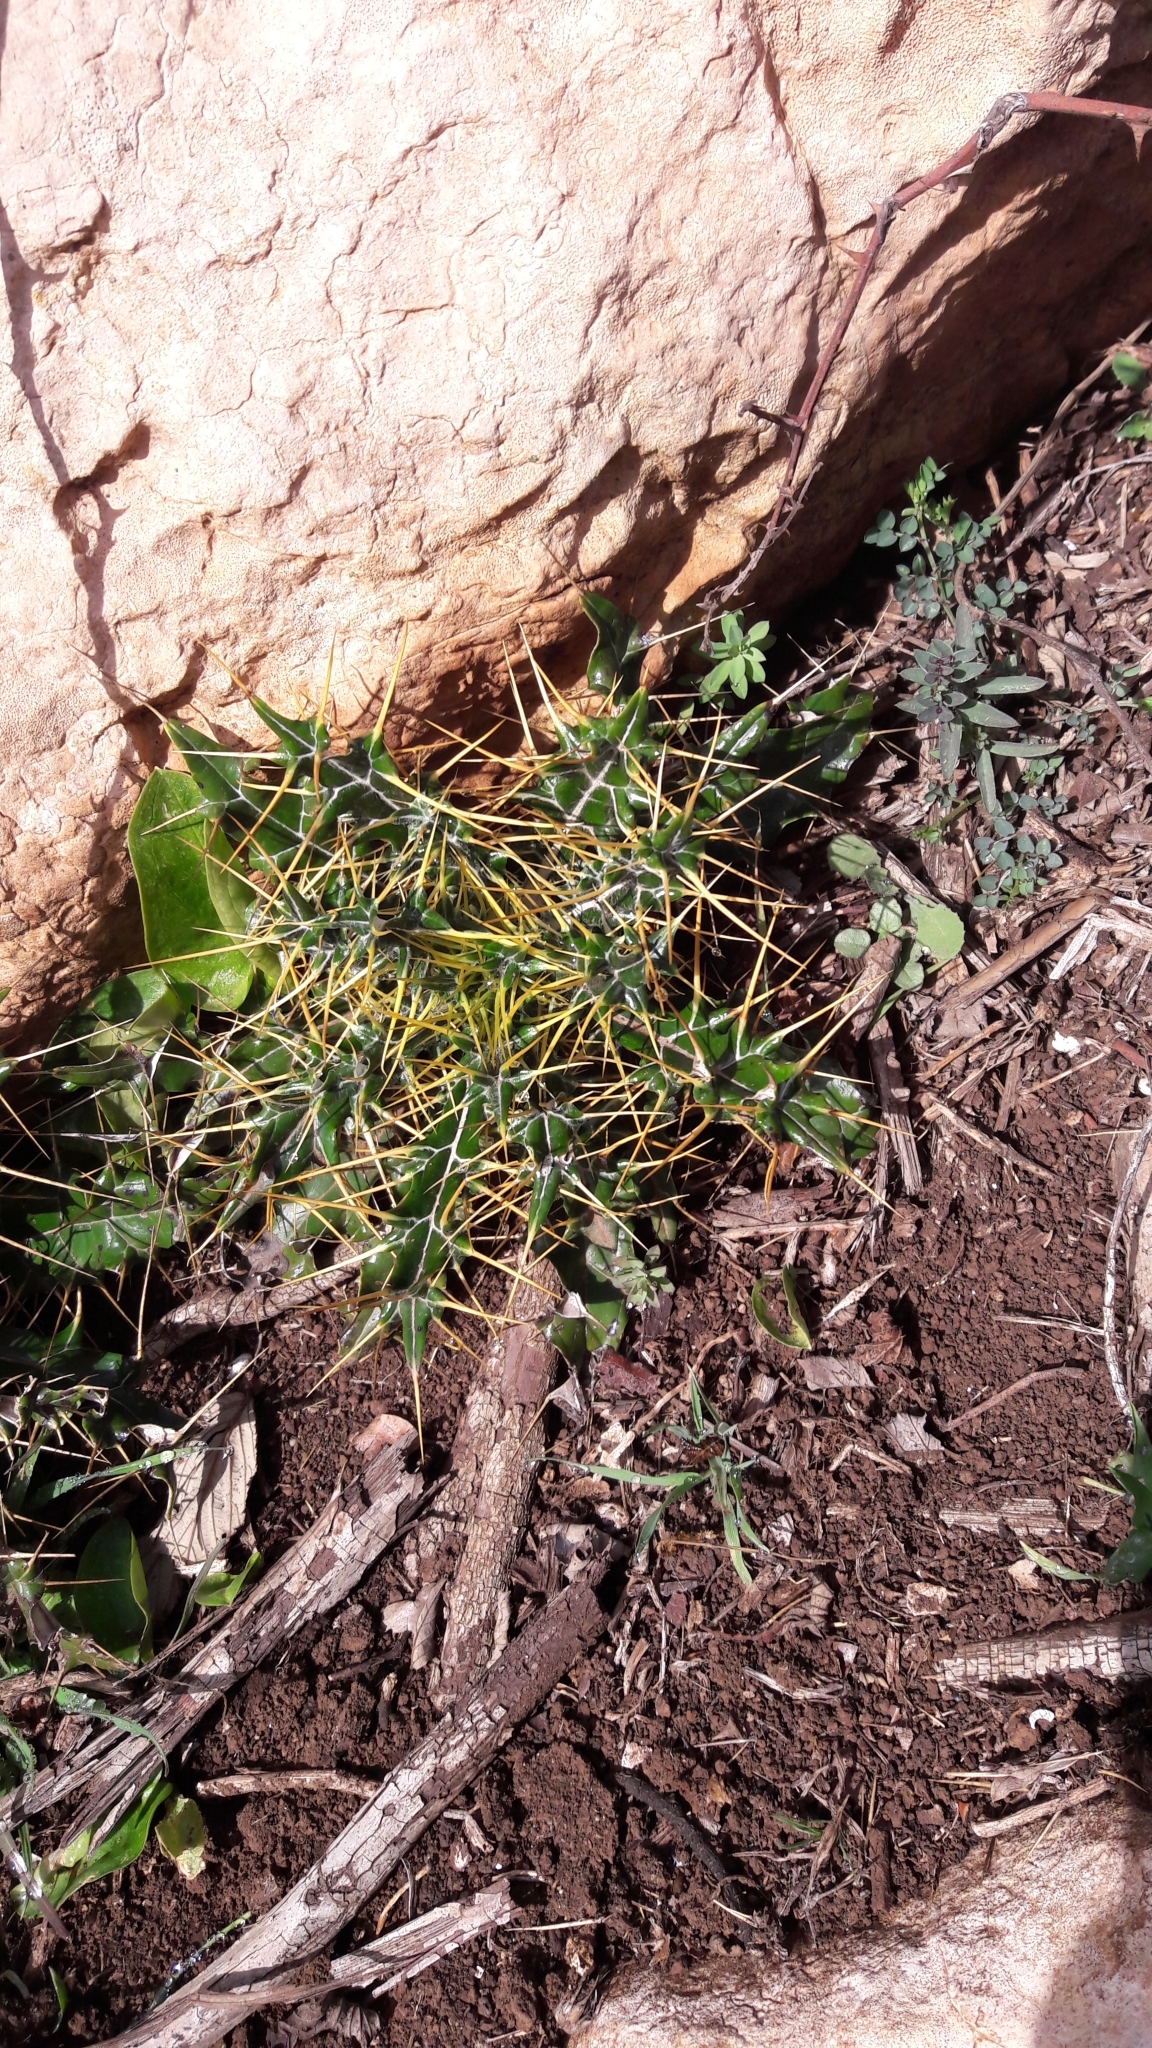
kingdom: Plantae
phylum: Tracheophyta
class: Magnoliopsida
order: Asterales
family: Asteraceae
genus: Ptilostemon
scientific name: Ptilostemon hispanicus
